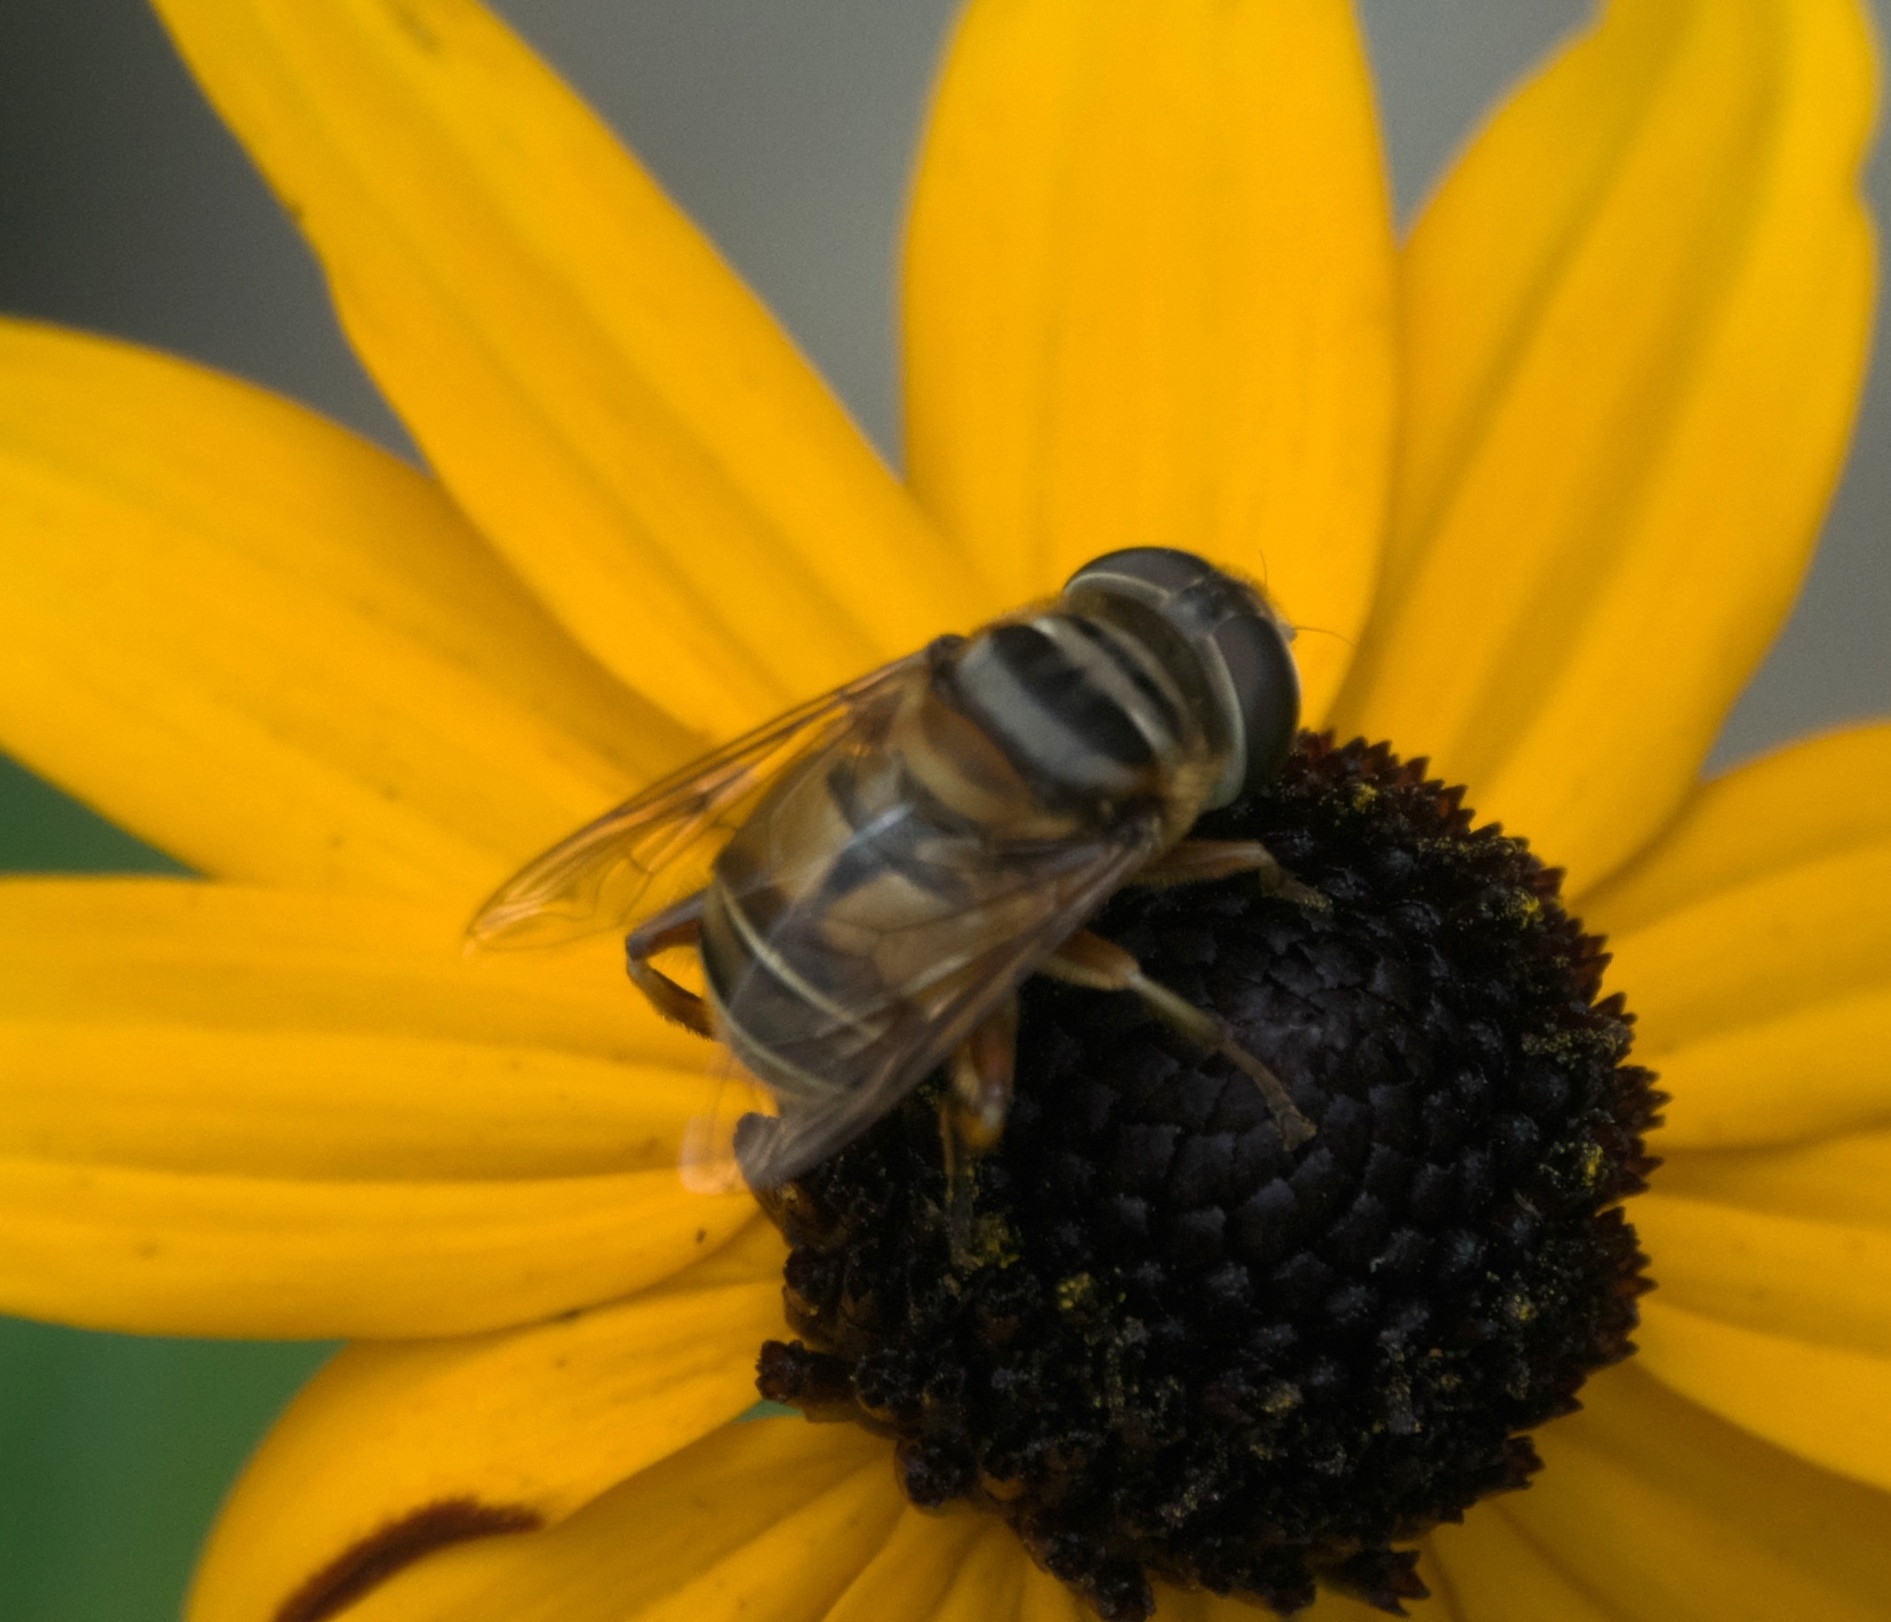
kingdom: Animalia
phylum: Arthropoda
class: Insecta
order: Diptera
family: Syrphidae
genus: Palpada
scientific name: Palpada vinetorum
